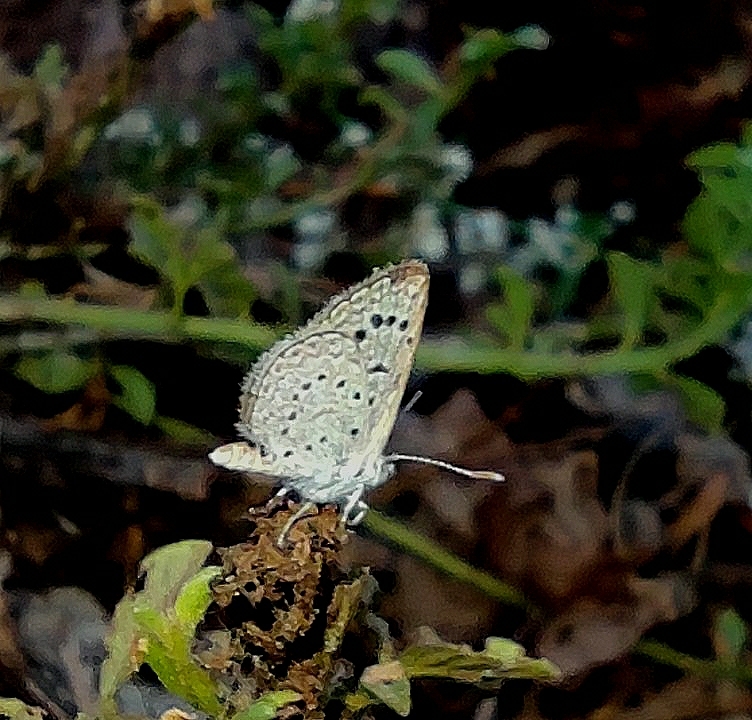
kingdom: Animalia
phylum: Arthropoda
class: Insecta
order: Lepidoptera
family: Lycaenidae
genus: Zizeeria
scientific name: Zizeeria karsandra
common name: Dark grass blue
